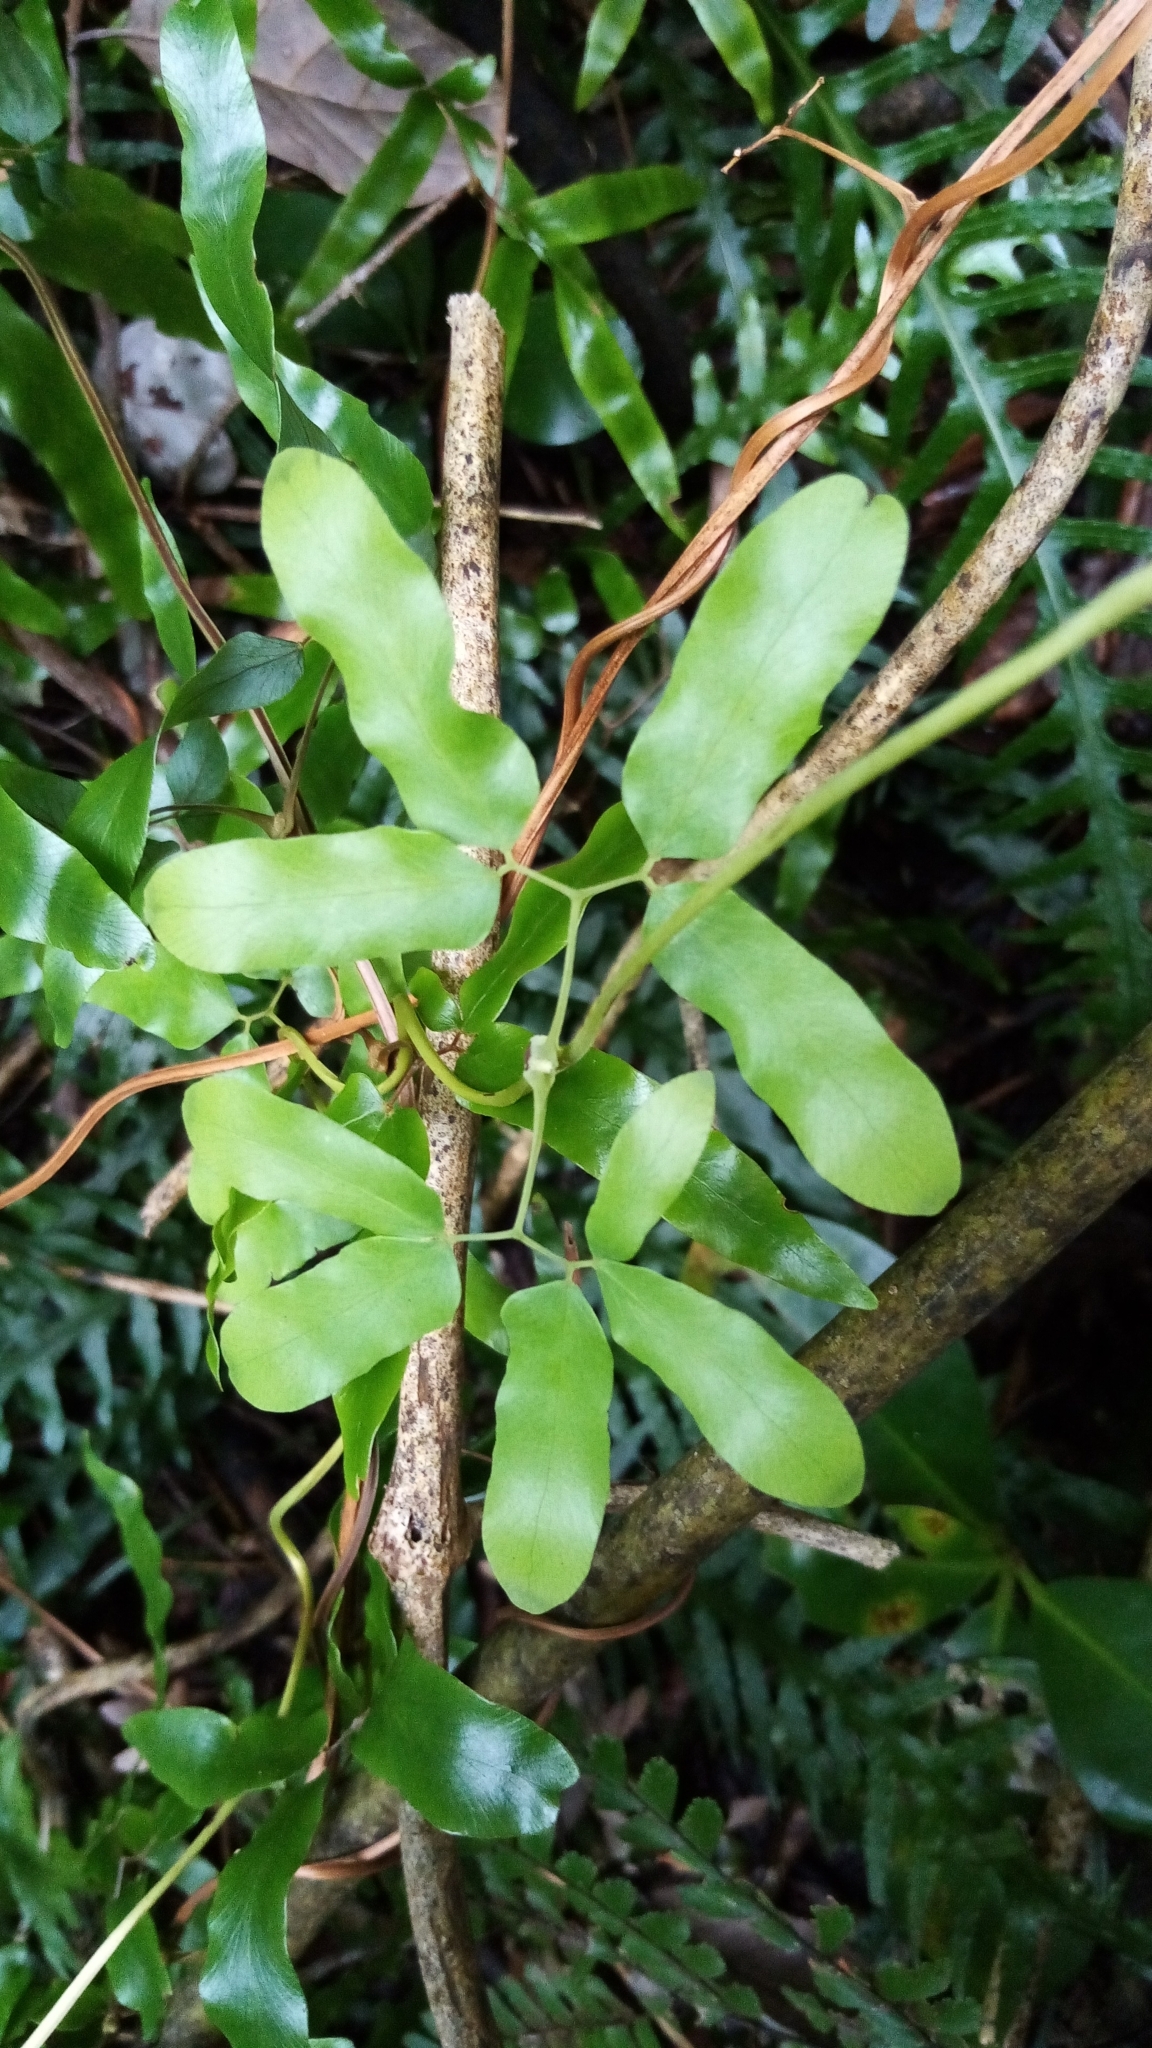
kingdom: Plantae
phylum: Tracheophyta
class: Polypodiopsida
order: Schizaeales
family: Lygodiaceae
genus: Lygodium
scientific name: Lygodium articulatum
